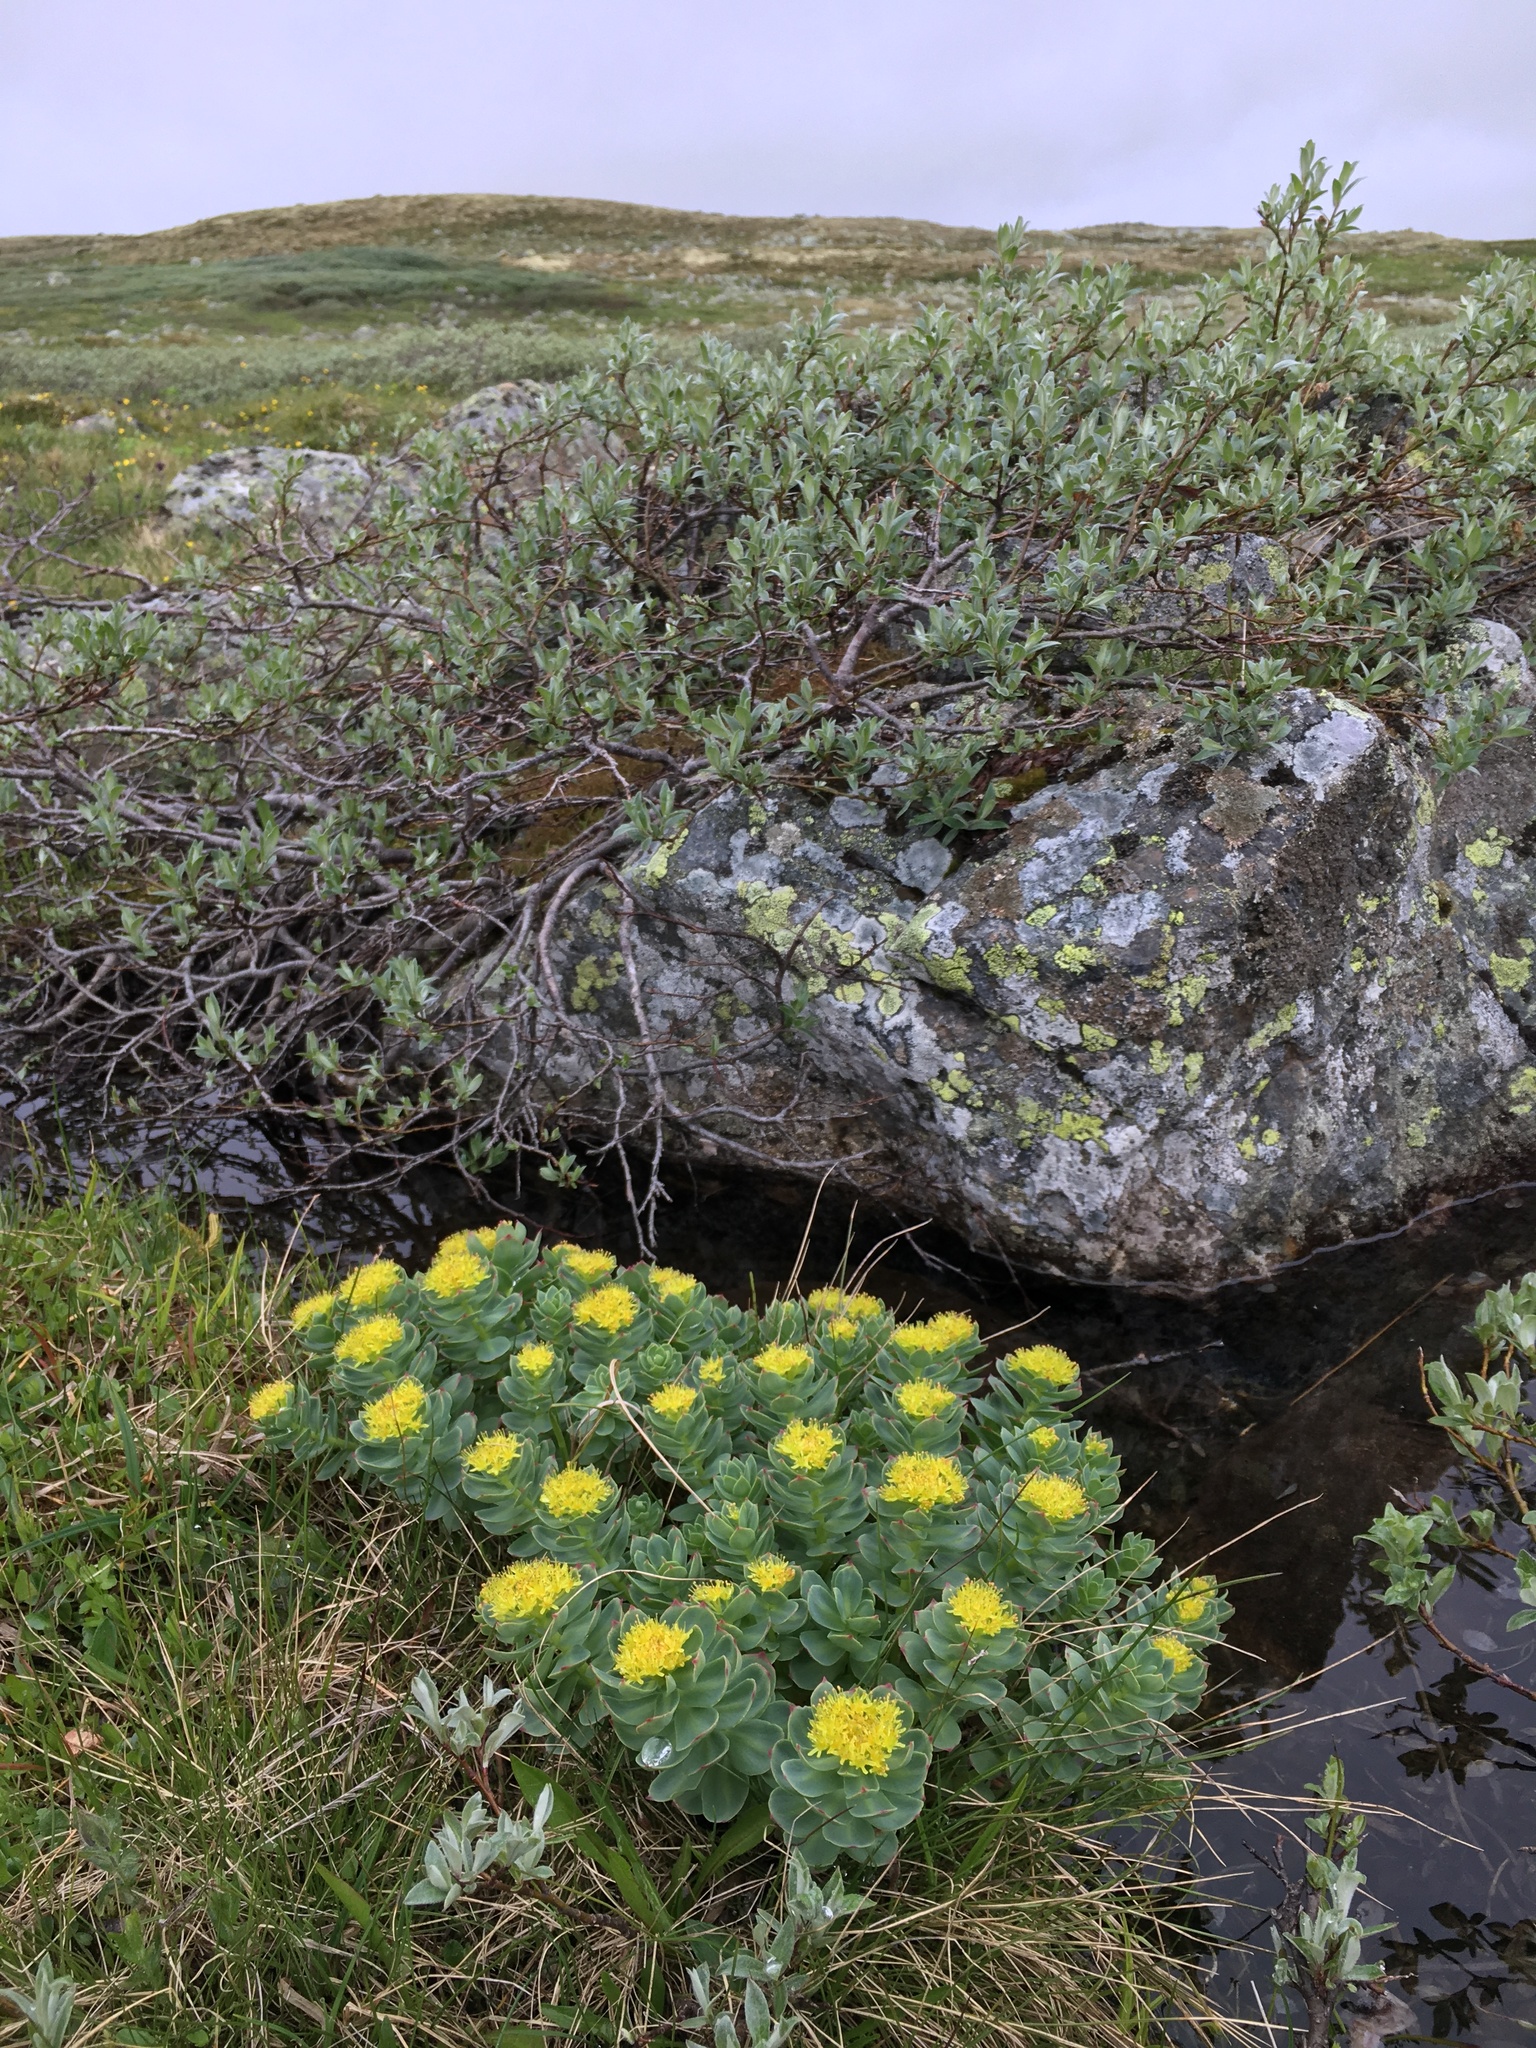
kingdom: Plantae
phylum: Tracheophyta
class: Magnoliopsida
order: Saxifragales
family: Crassulaceae
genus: Rhodiola
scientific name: Rhodiola rosea
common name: Roseroot
